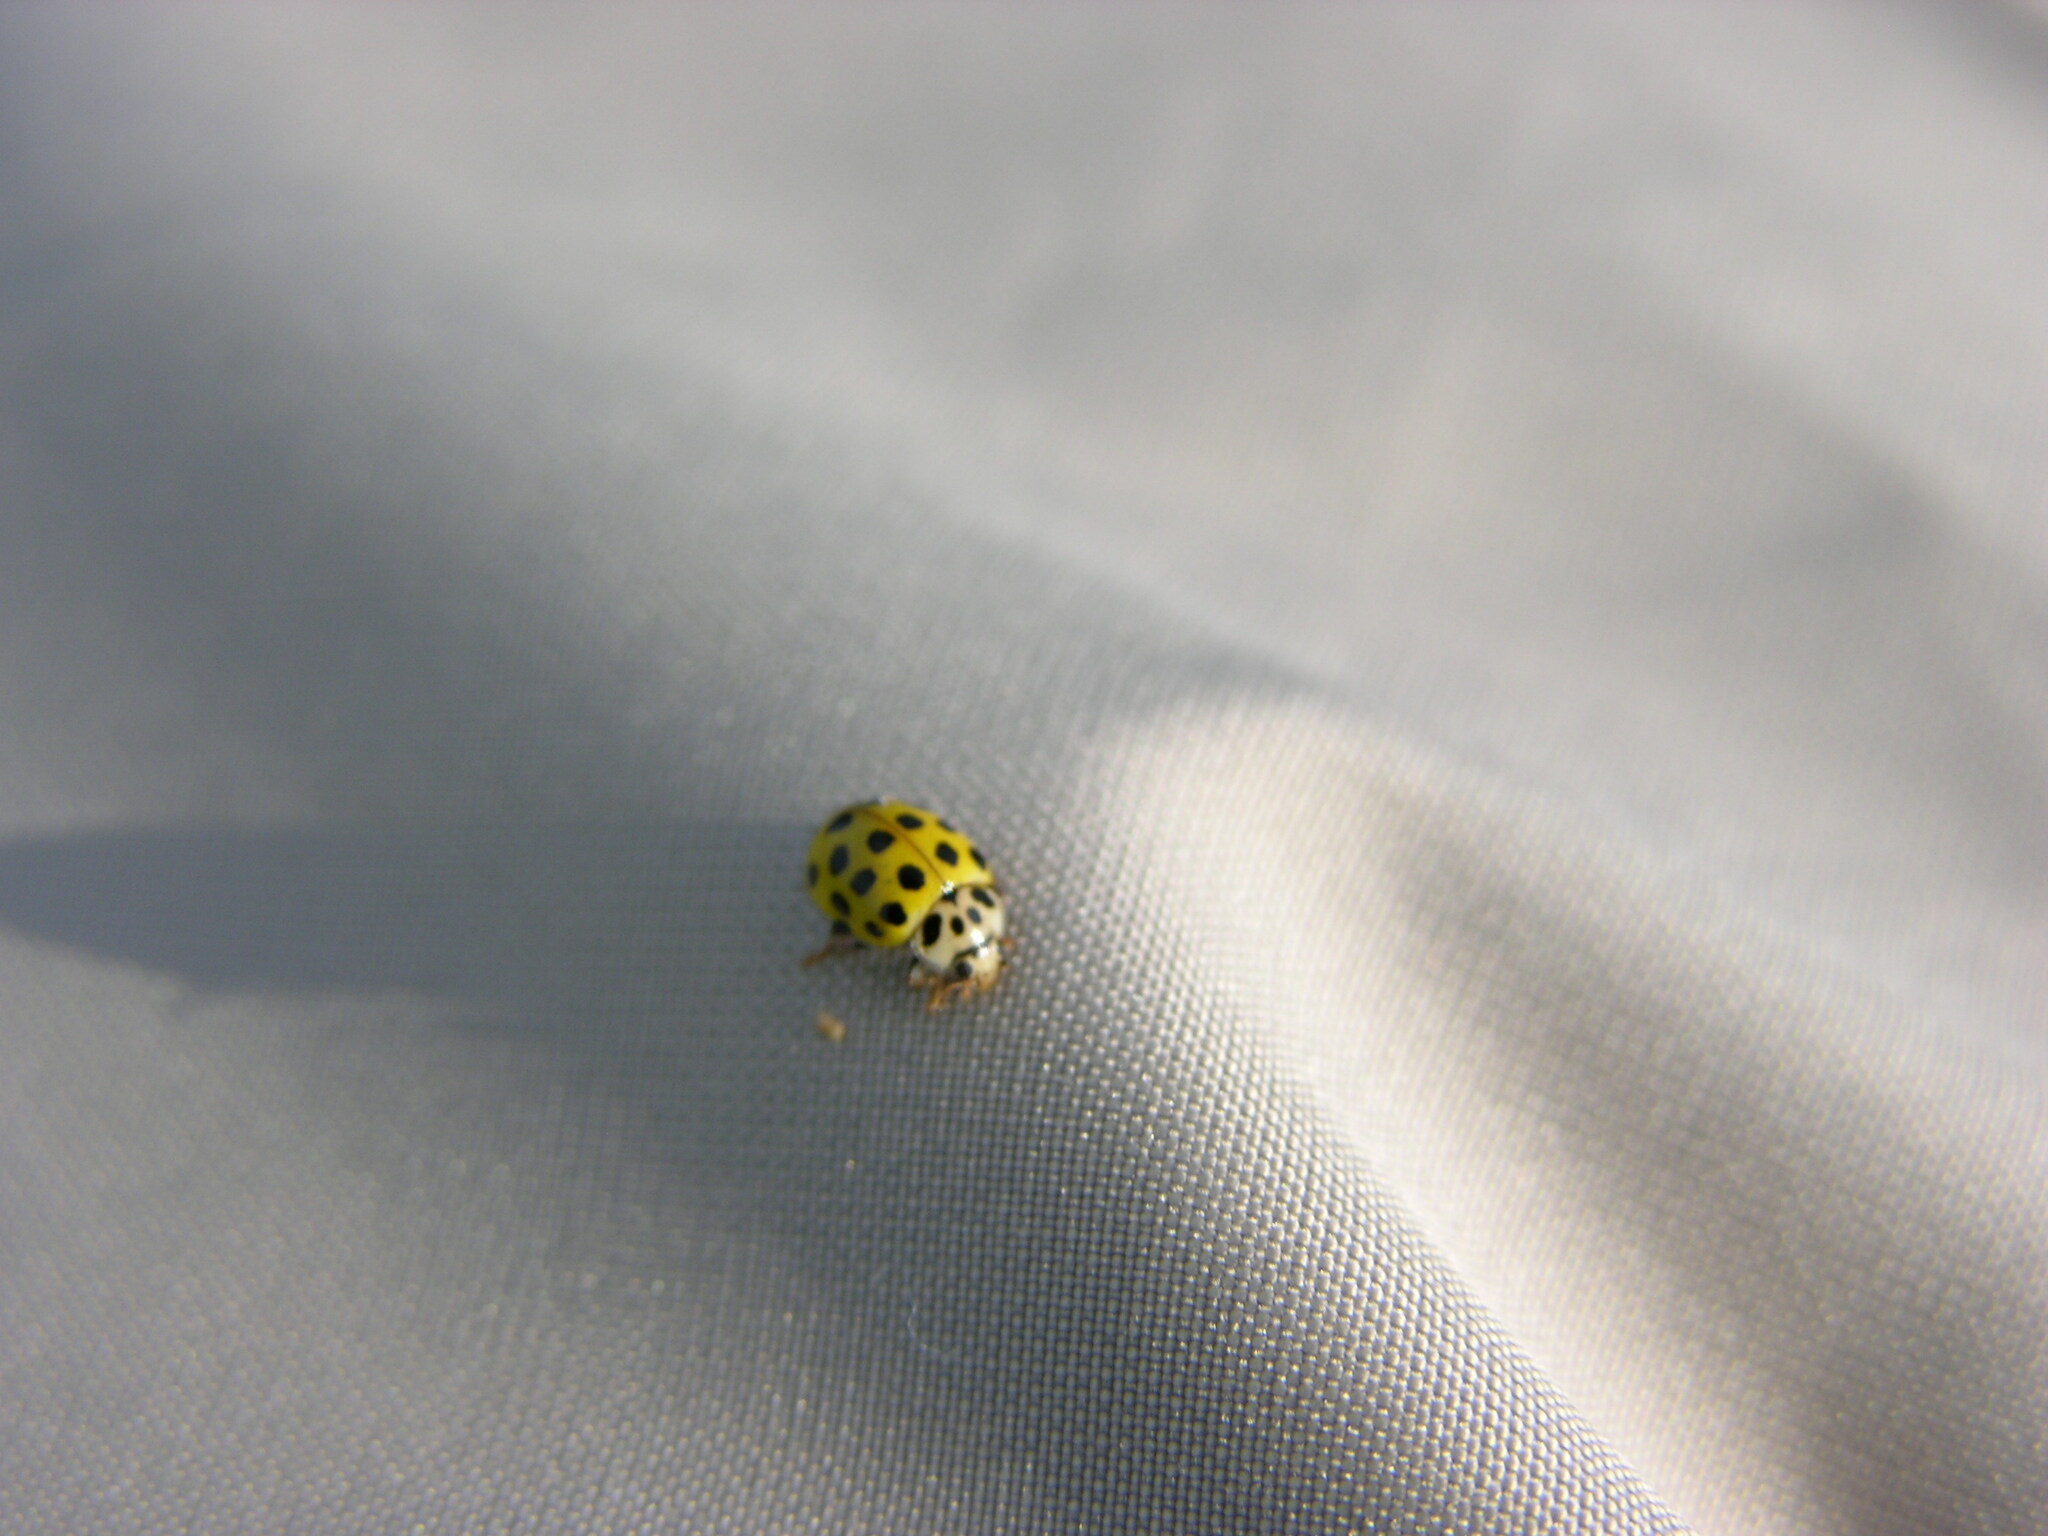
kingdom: Animalia
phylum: Arthropoda
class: Insecta
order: Coleoptera
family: Coccinellidae
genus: Psyllobora
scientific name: Psyllobora vigintiduopunctata
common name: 22-spot ladybird
